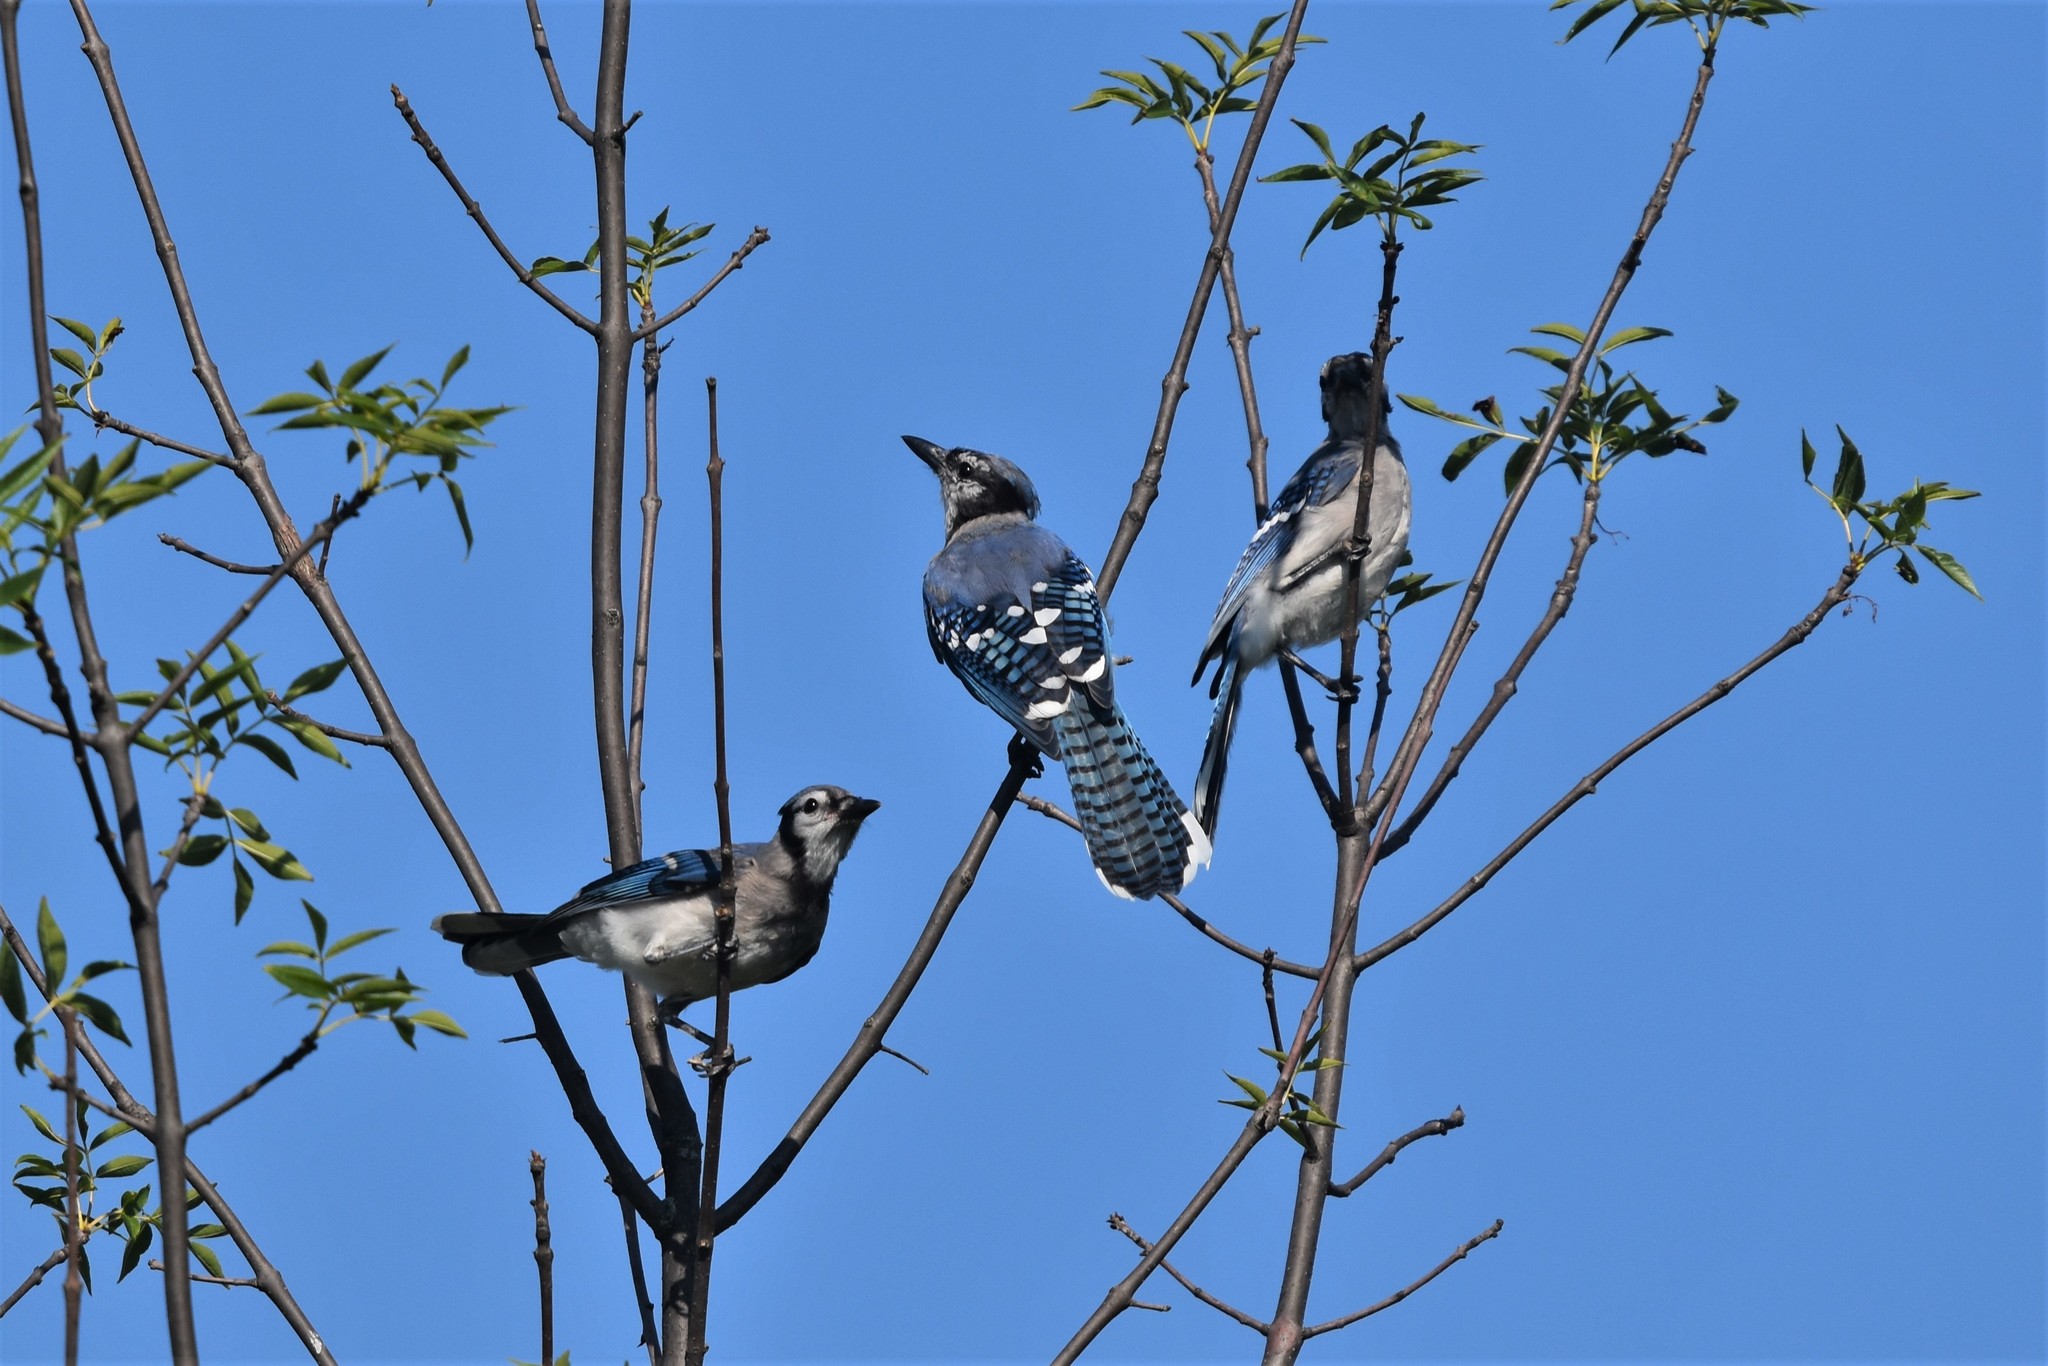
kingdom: Animalia
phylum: Chordata
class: Aves
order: Passeriformes
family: Corvidae
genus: Cyanocitta
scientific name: Cyanocitta cristata
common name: Blue jay
